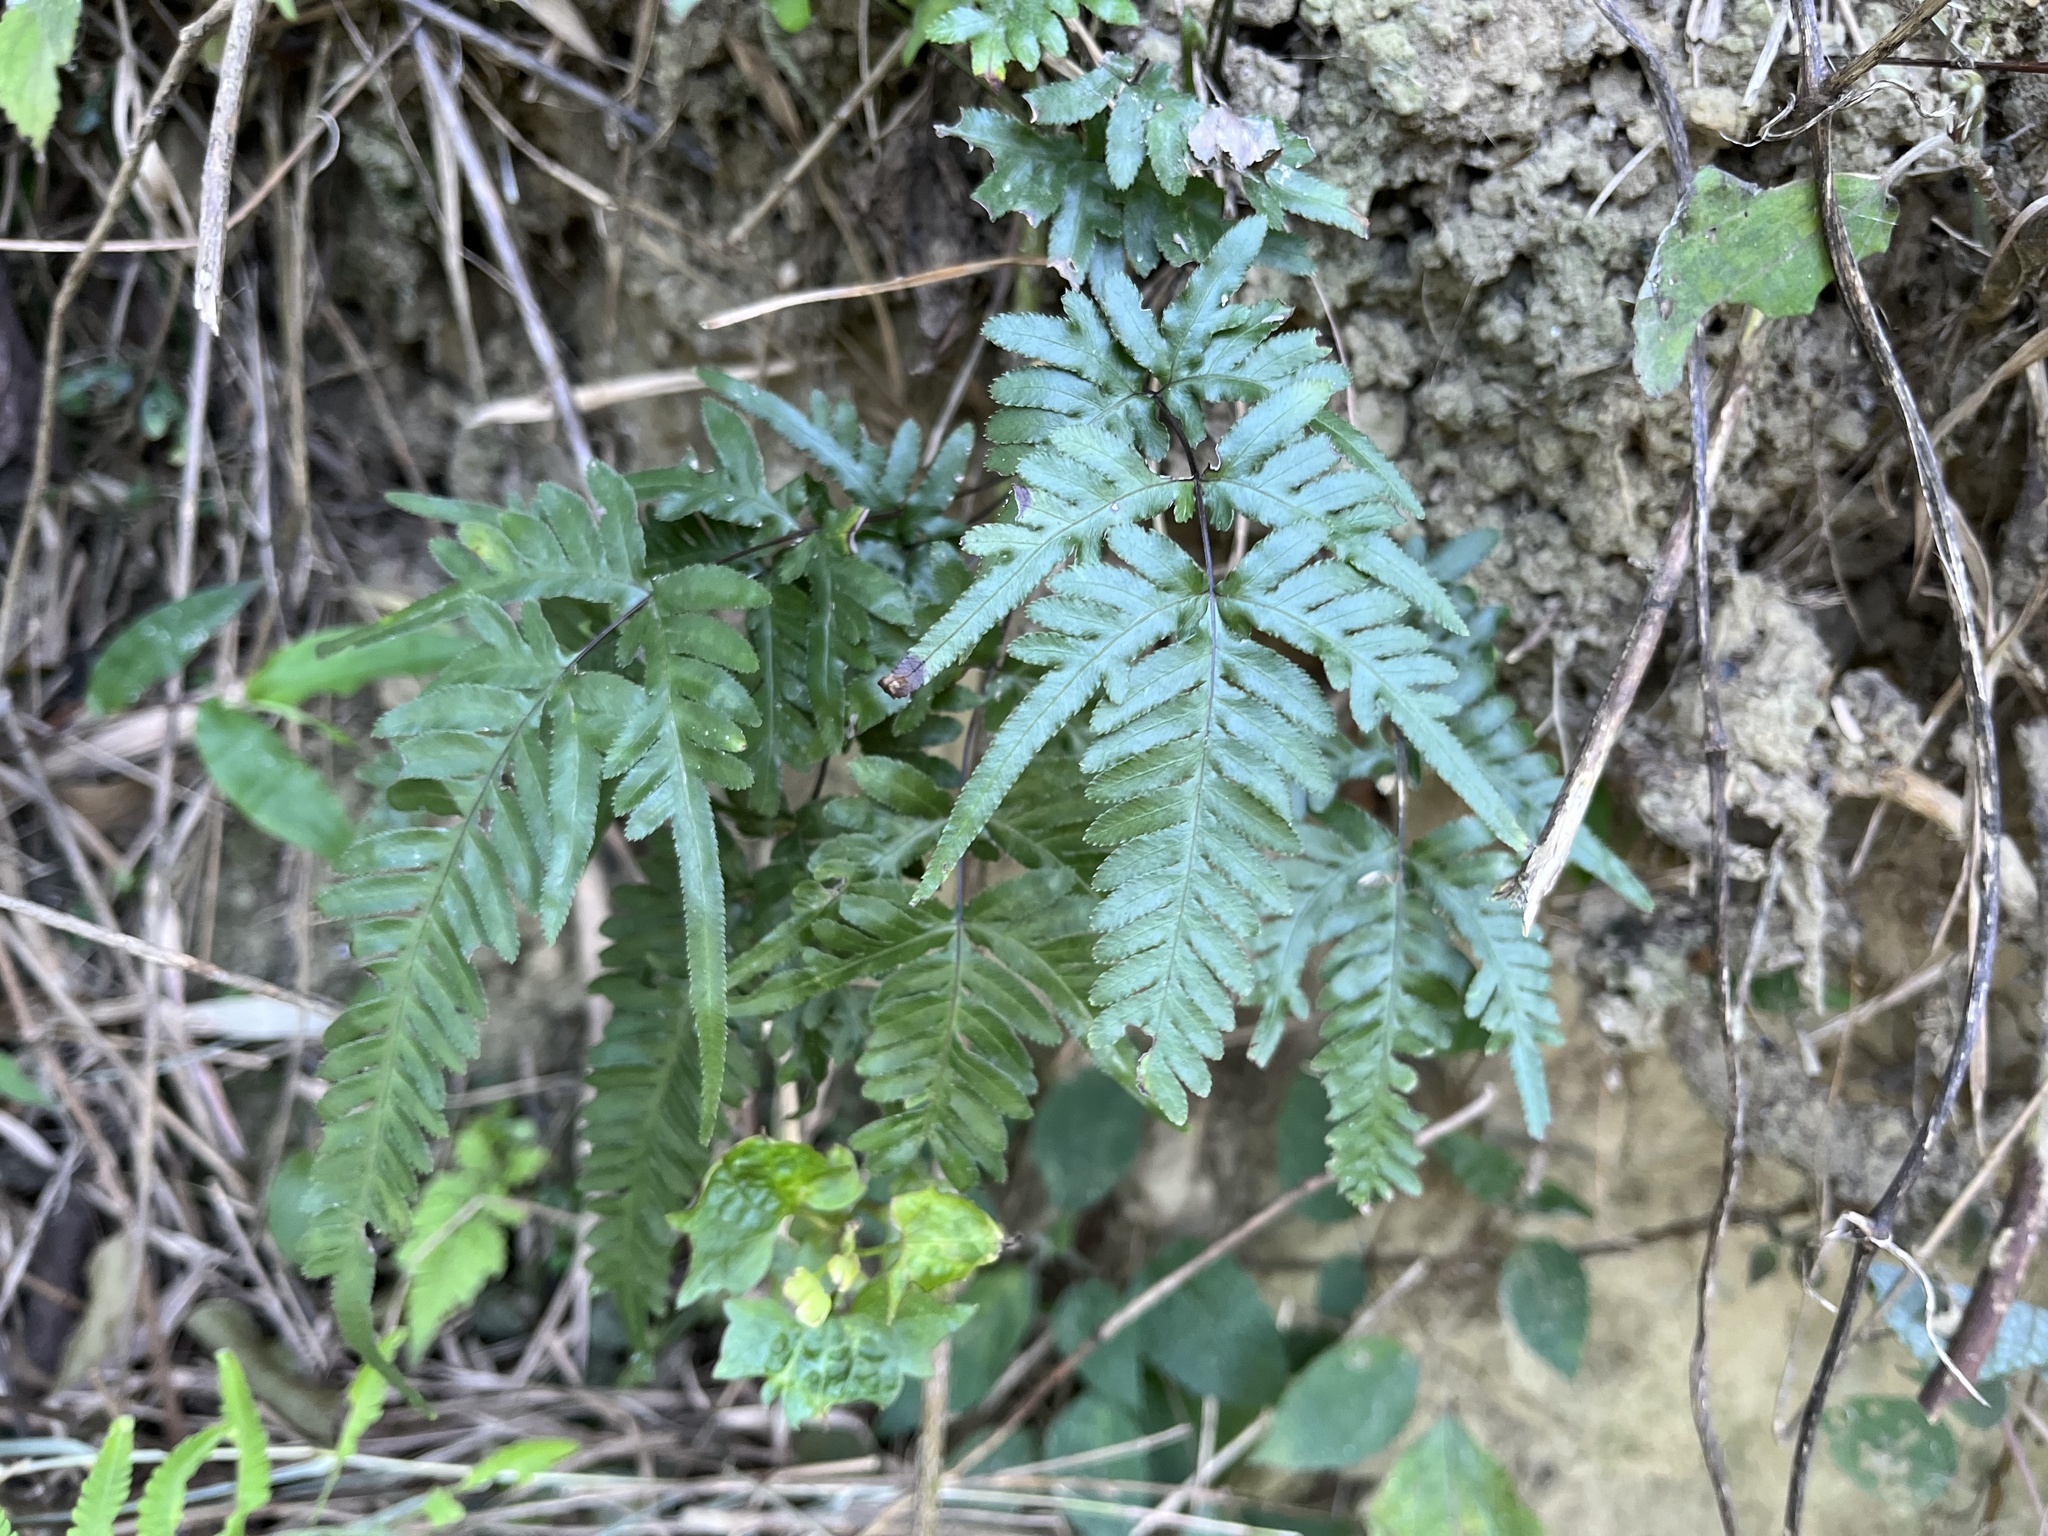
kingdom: Plantae
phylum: Tracheophyta
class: Polypodiopsida
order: Polypodiales
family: Pteridaceae
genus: Pteris
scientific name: Pteris dispar
